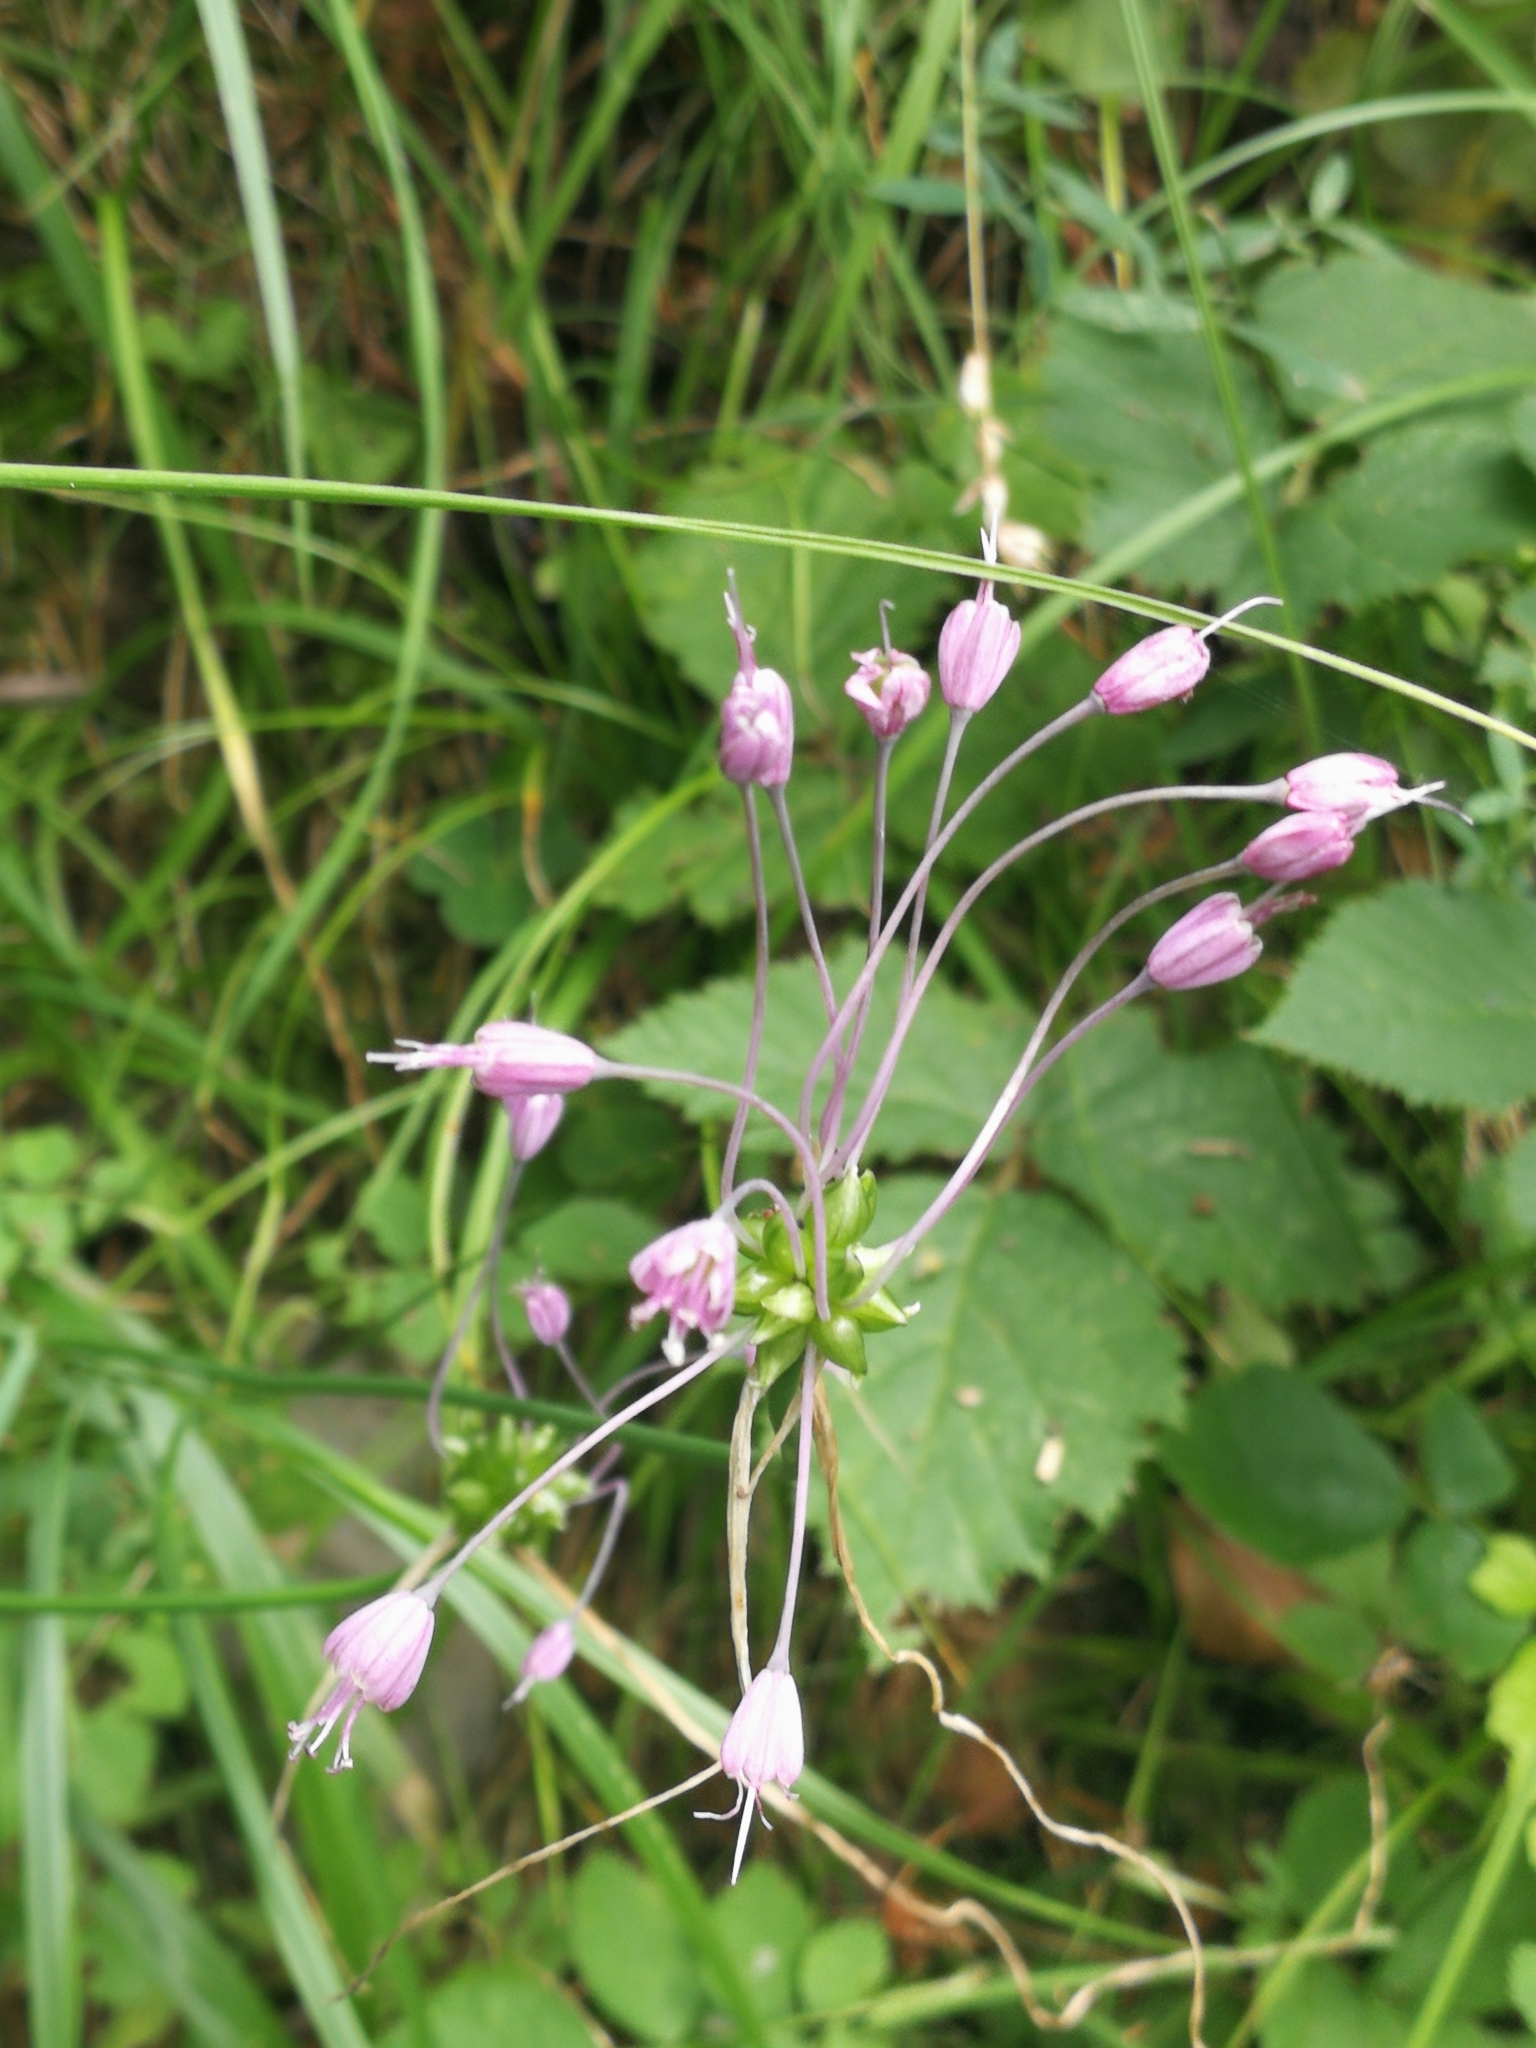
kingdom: Plantae
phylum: Tracheophyta
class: Liliopsida
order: Asparagales
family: Amaryllidaceae
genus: Allium
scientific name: Allium carinatum
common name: Keeled garlic
